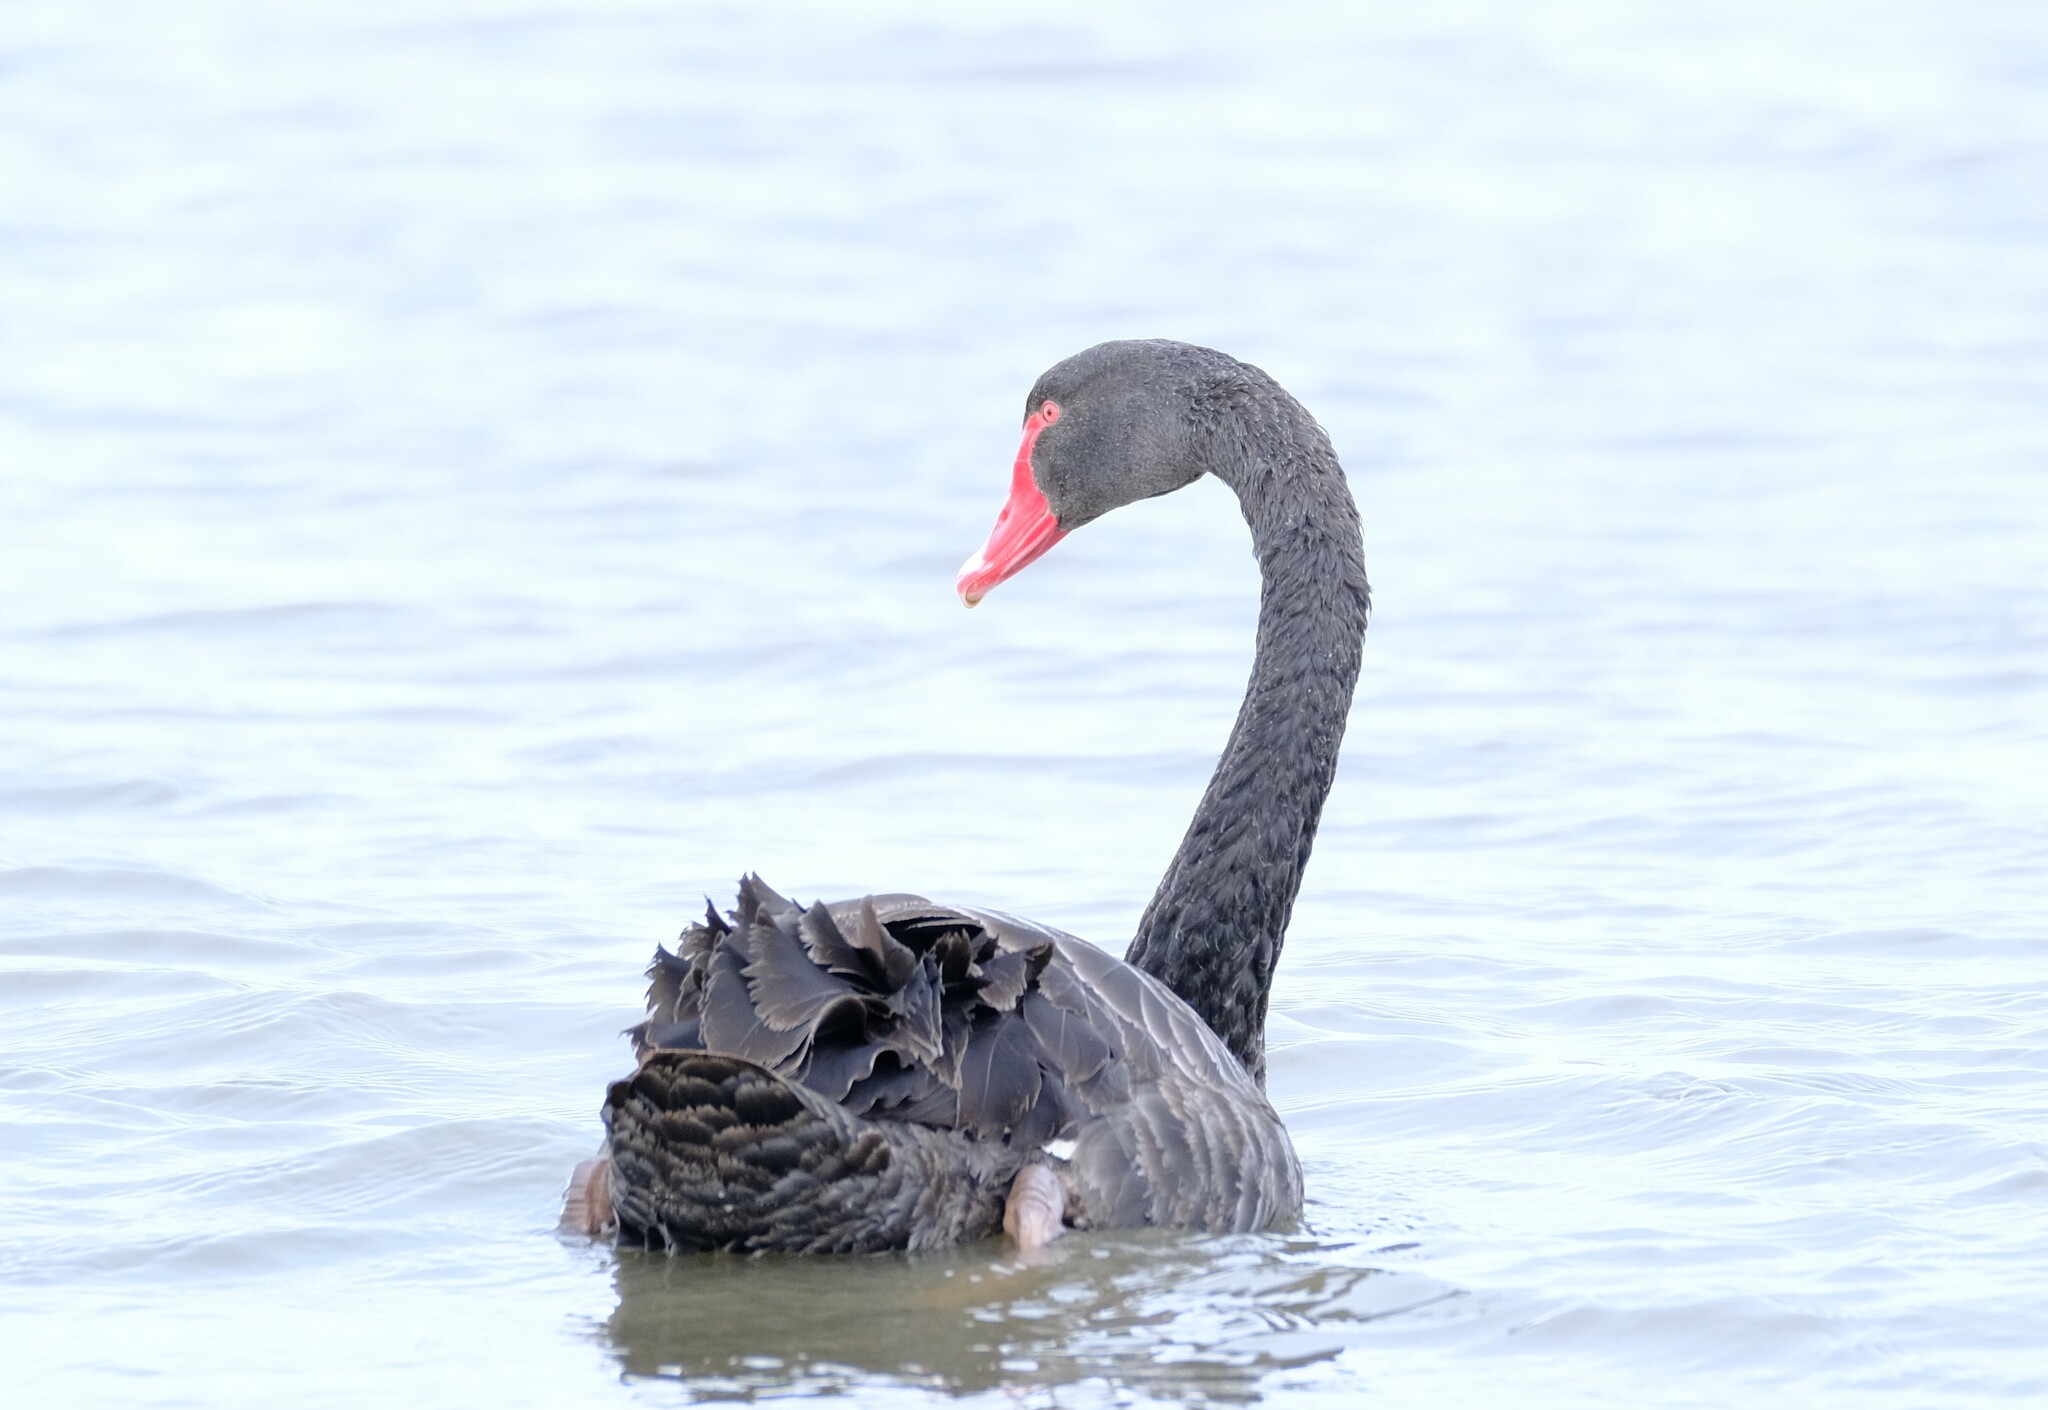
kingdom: Animalia
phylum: Chordata
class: Aves
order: Anseriformes
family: Anatidae
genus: Cygnus
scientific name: Cygnus atratus
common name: Black swan
